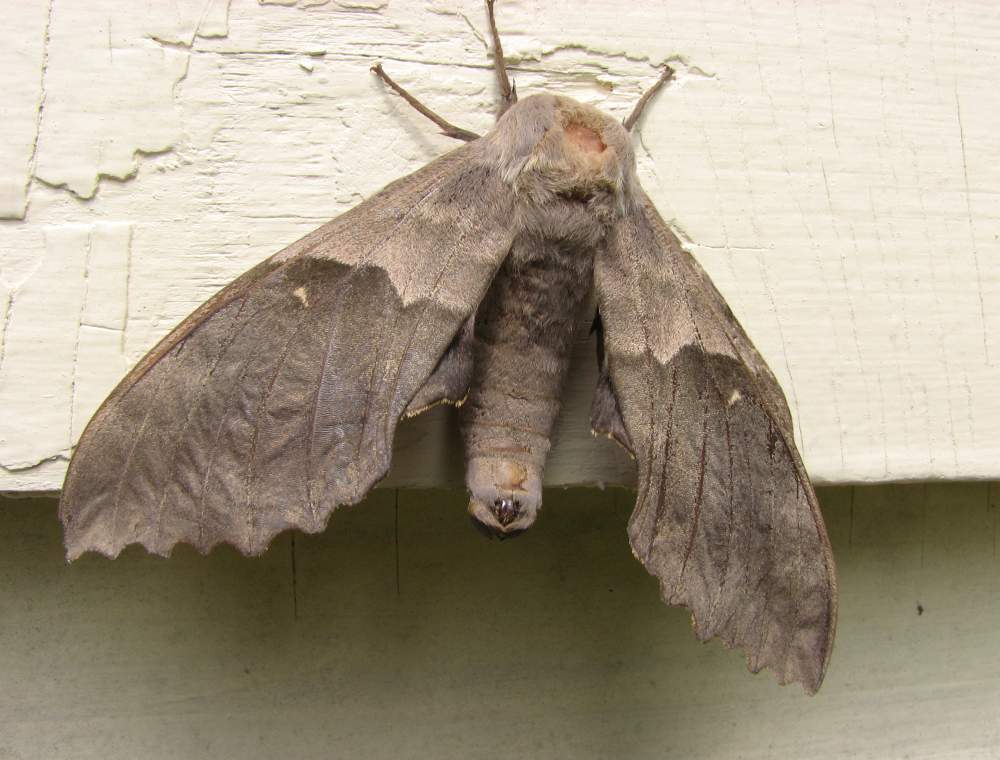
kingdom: Animalia
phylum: Arthropoda
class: Insecta
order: Lepidoptera
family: Sphingidae
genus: Pachysphinx
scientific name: Pachysphinx modesta
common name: Big poplar sphinx
